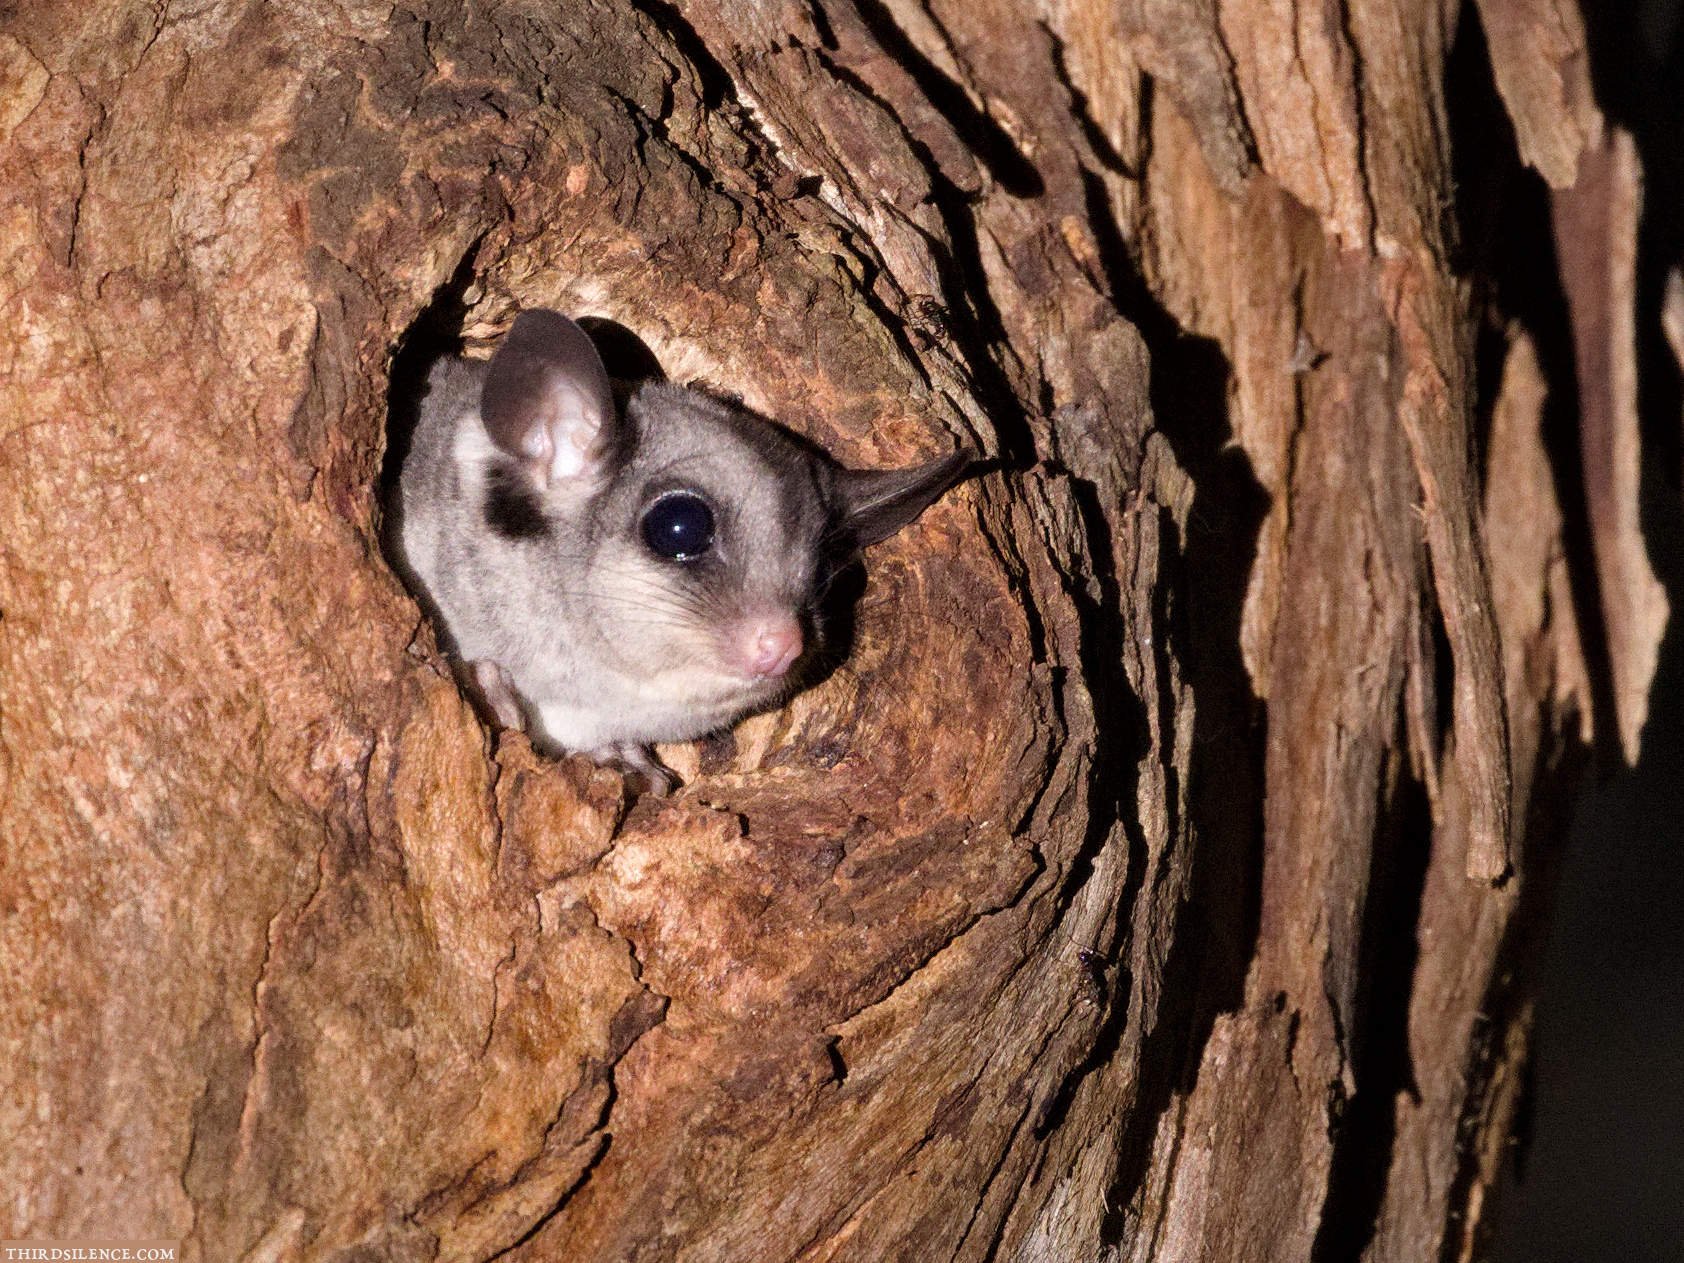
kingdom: Animalia
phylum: Chordata
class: Mammalia
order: Diprotodontia
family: Petauridae
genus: Petaurus
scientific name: Petaurus breviceps
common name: Sugar glider
